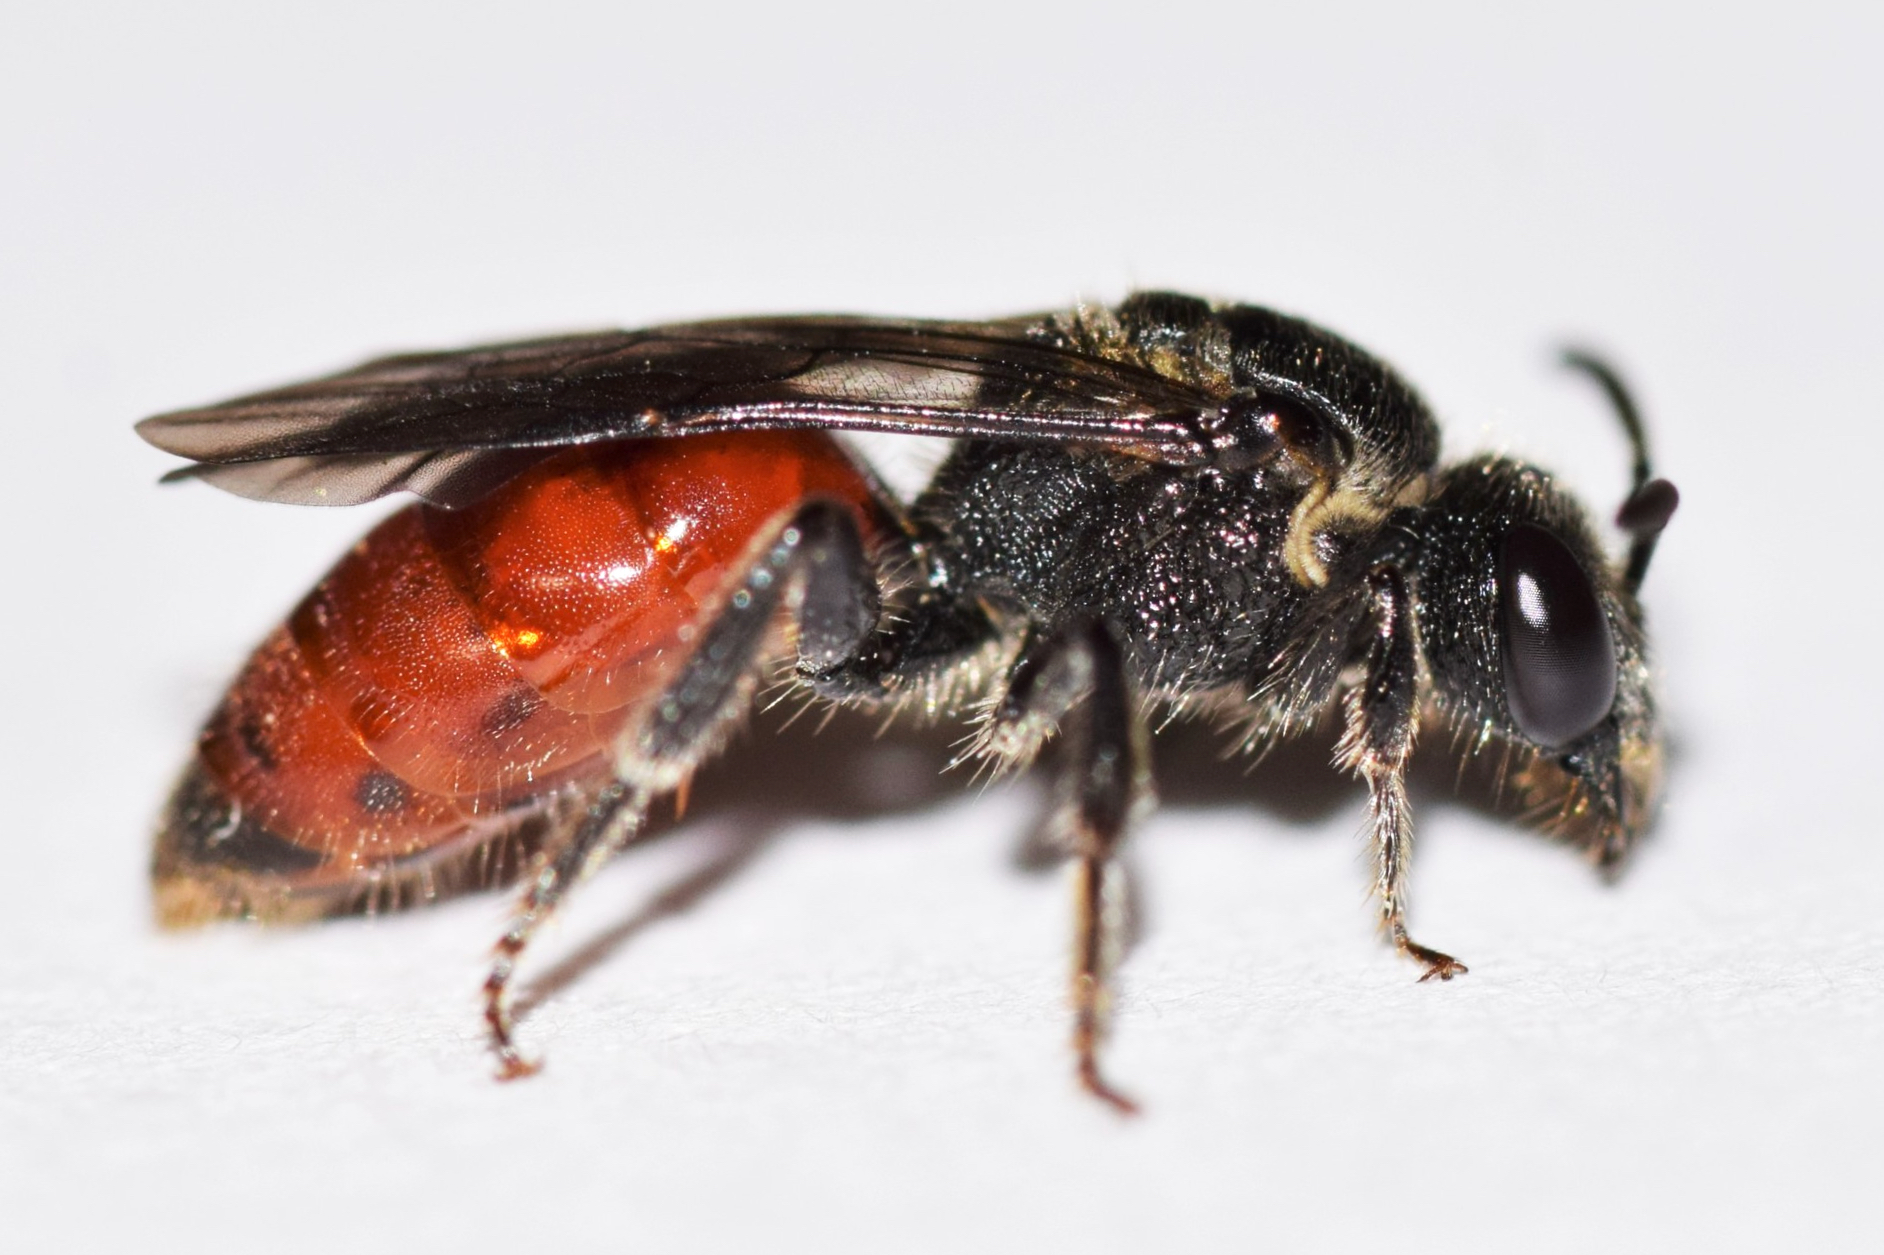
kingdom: Animalia
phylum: Arthropoda
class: Insecta
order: Hymenoptera
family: Halictidae
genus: Sphecodes
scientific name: Sphecodes dichrous
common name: Scalloped cuckoo sweat bee
